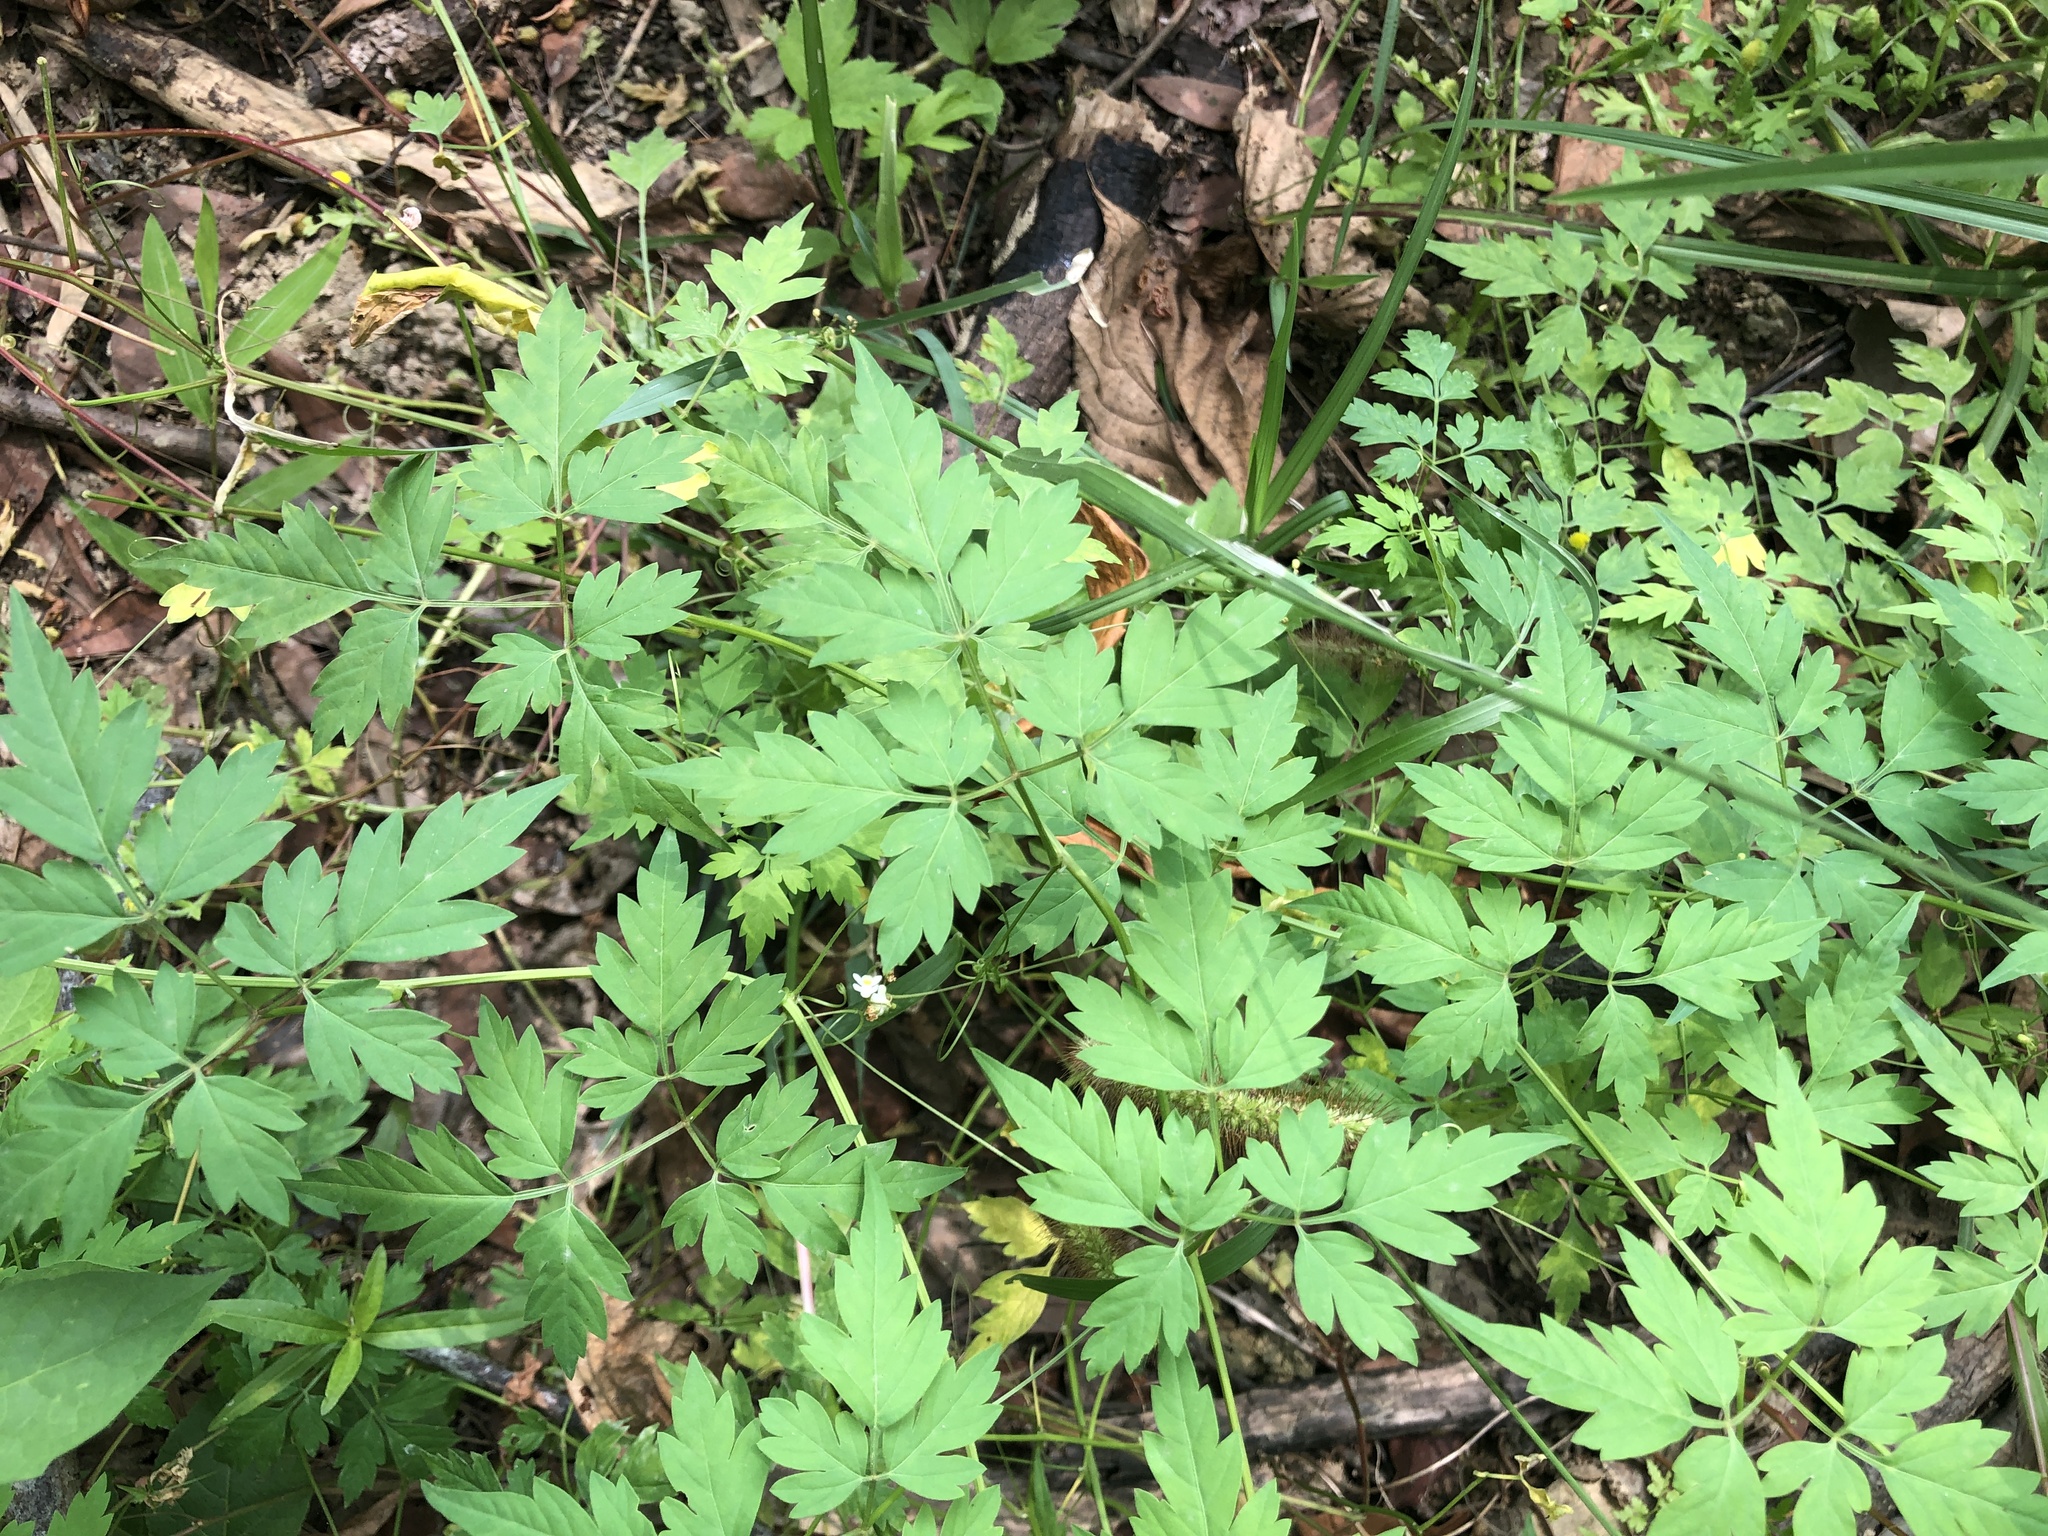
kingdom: Plantae
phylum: Tracheophyta
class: Magnoliopsida
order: Sapindales
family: Sapindaceae
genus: Cardiospermum
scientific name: Cardiospermum halicacabum
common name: Balloon vine
